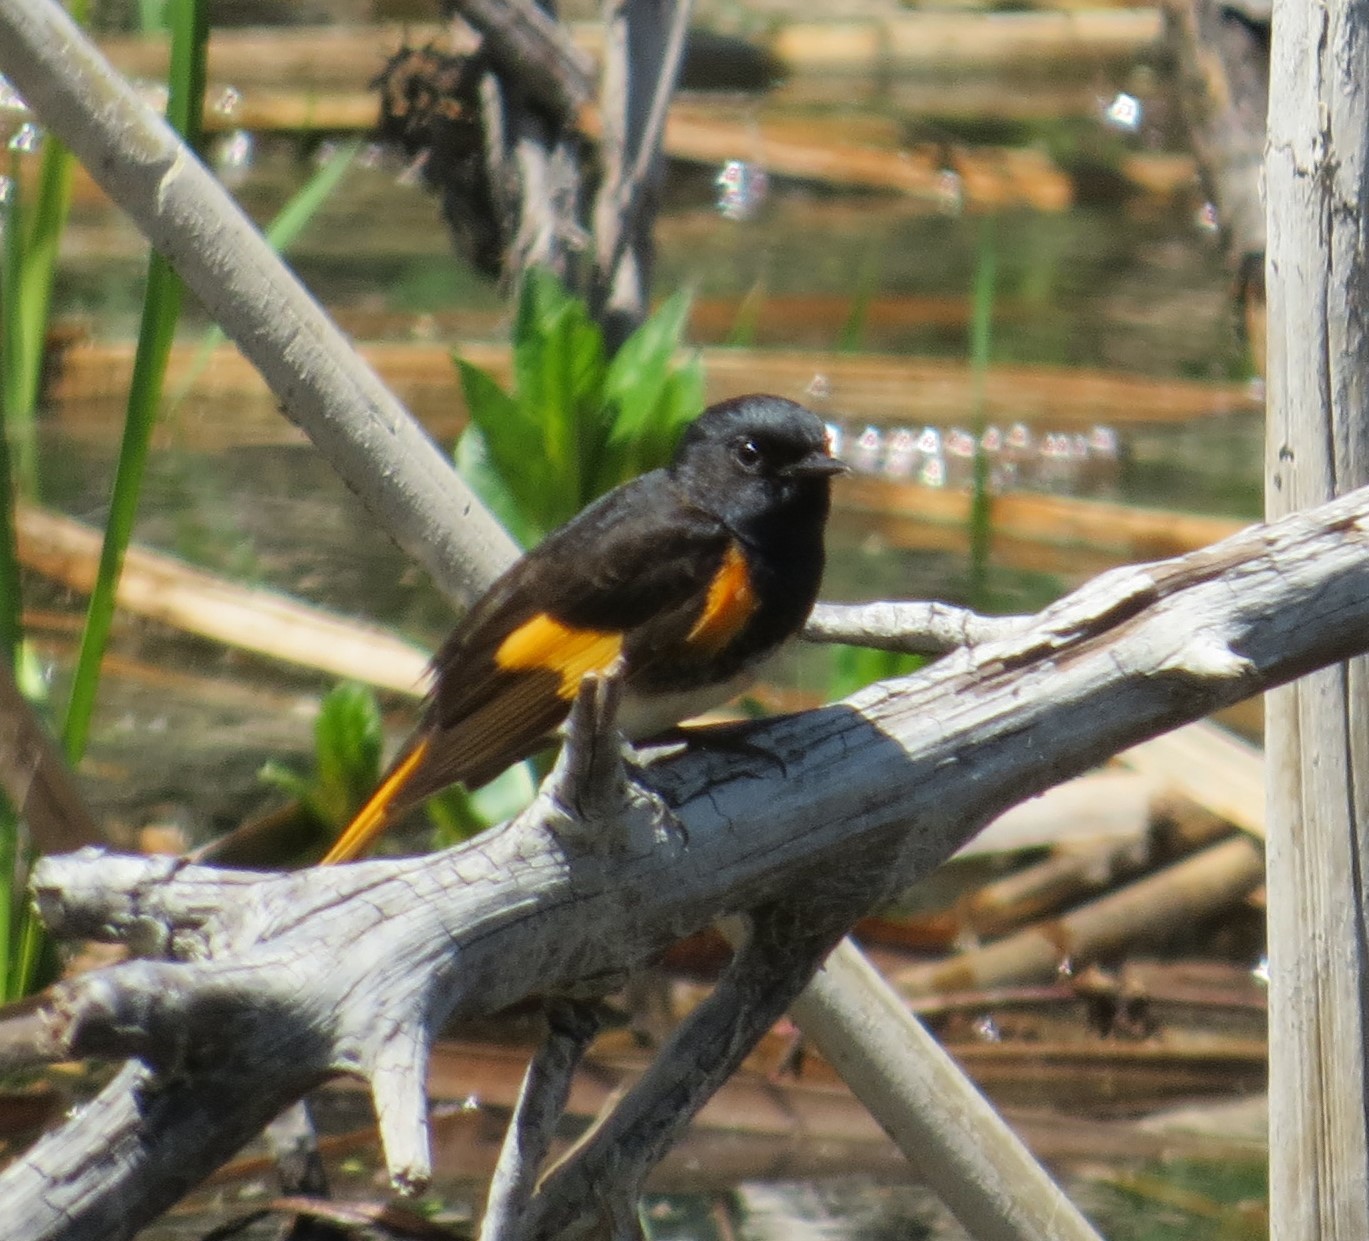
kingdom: Animalia
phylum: Chordata
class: Aves
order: Passeriformes
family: Parulidae
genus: Setophaga
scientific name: Setophaga ruticilla
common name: American redstart
